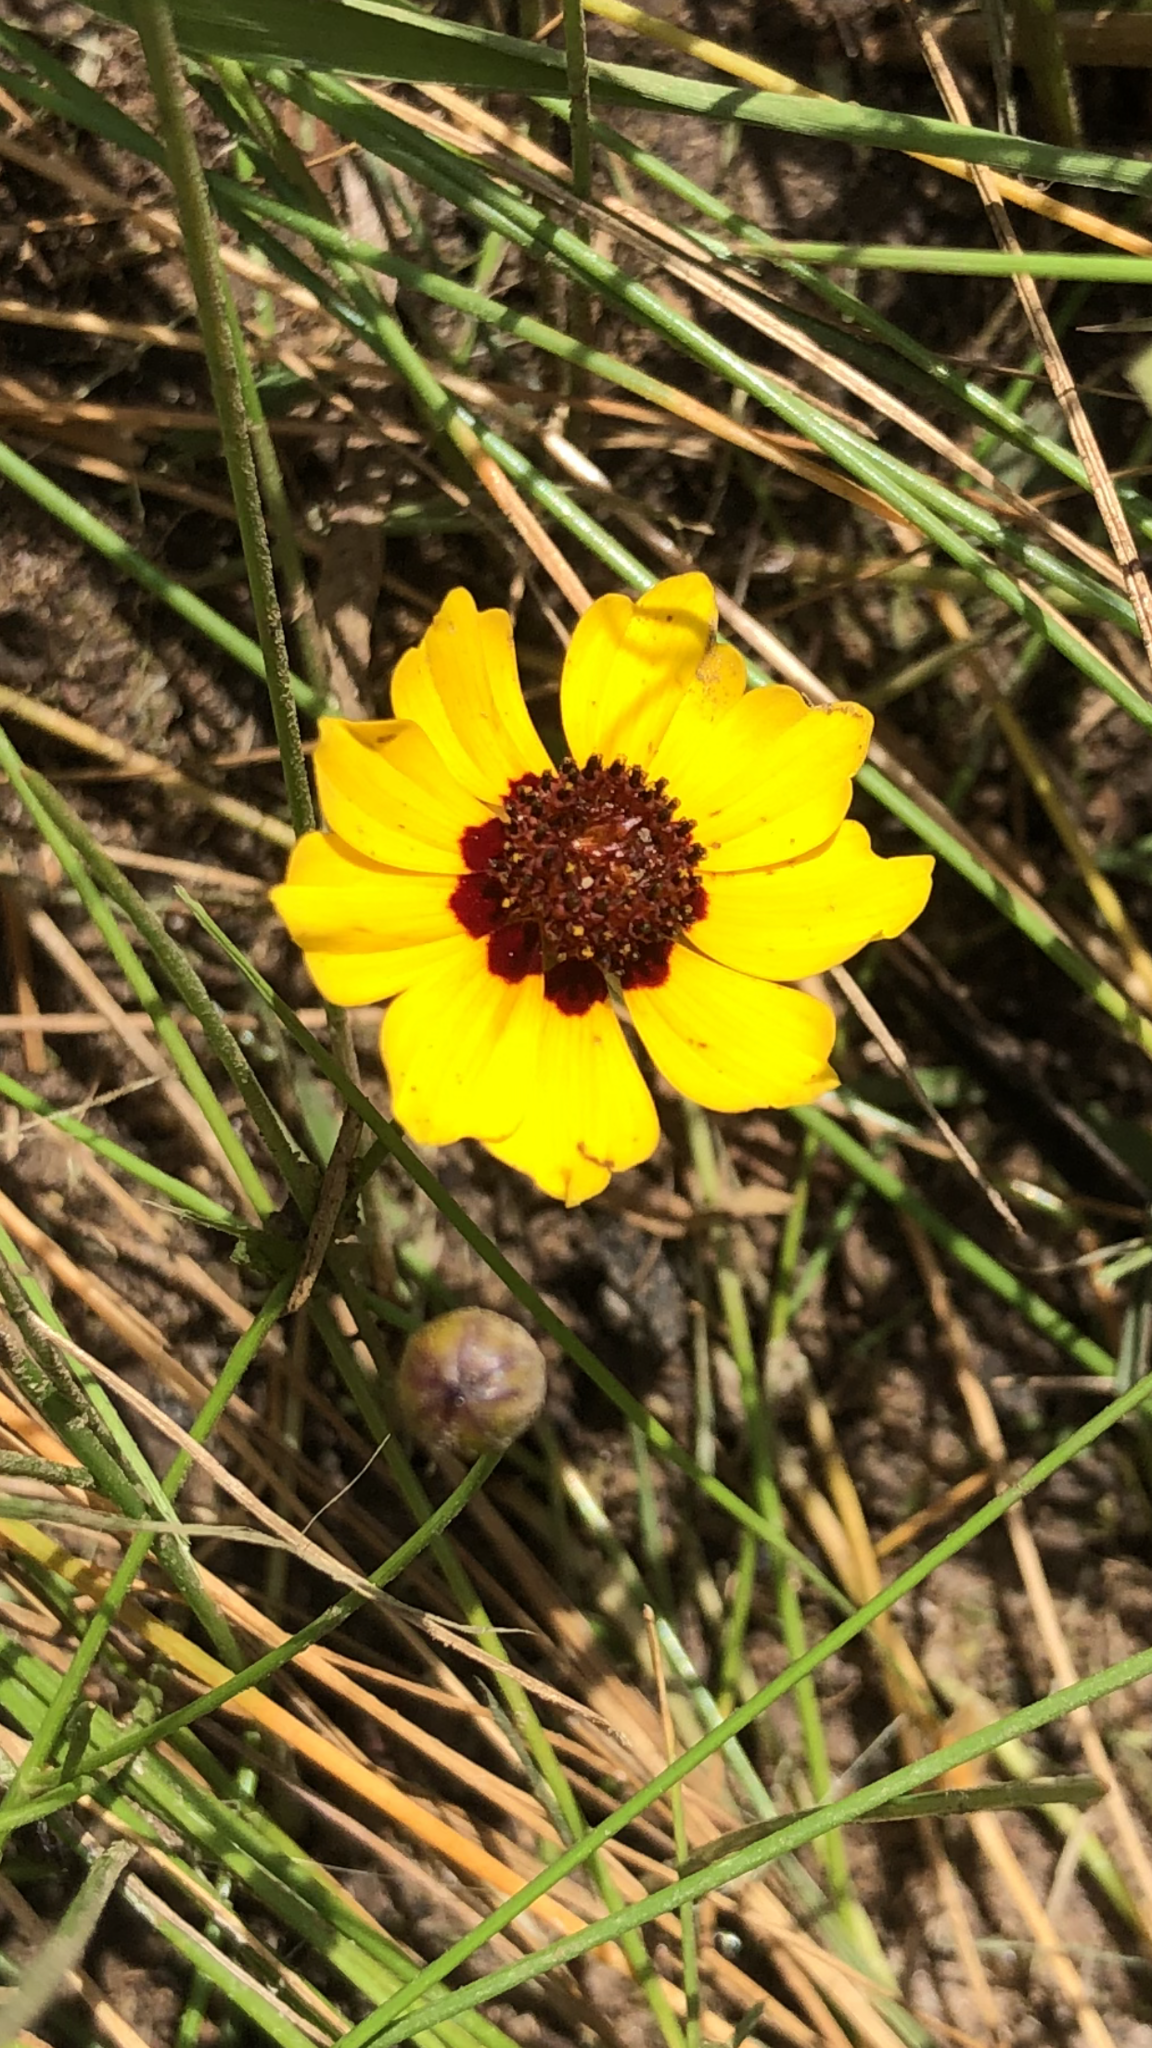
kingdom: Plantae
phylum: Tracheophyta
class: Magnoliopsida
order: Asterales
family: Asteraceae
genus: Coreopsis
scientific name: Coreopsis tinctoria
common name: Garden tickseed
